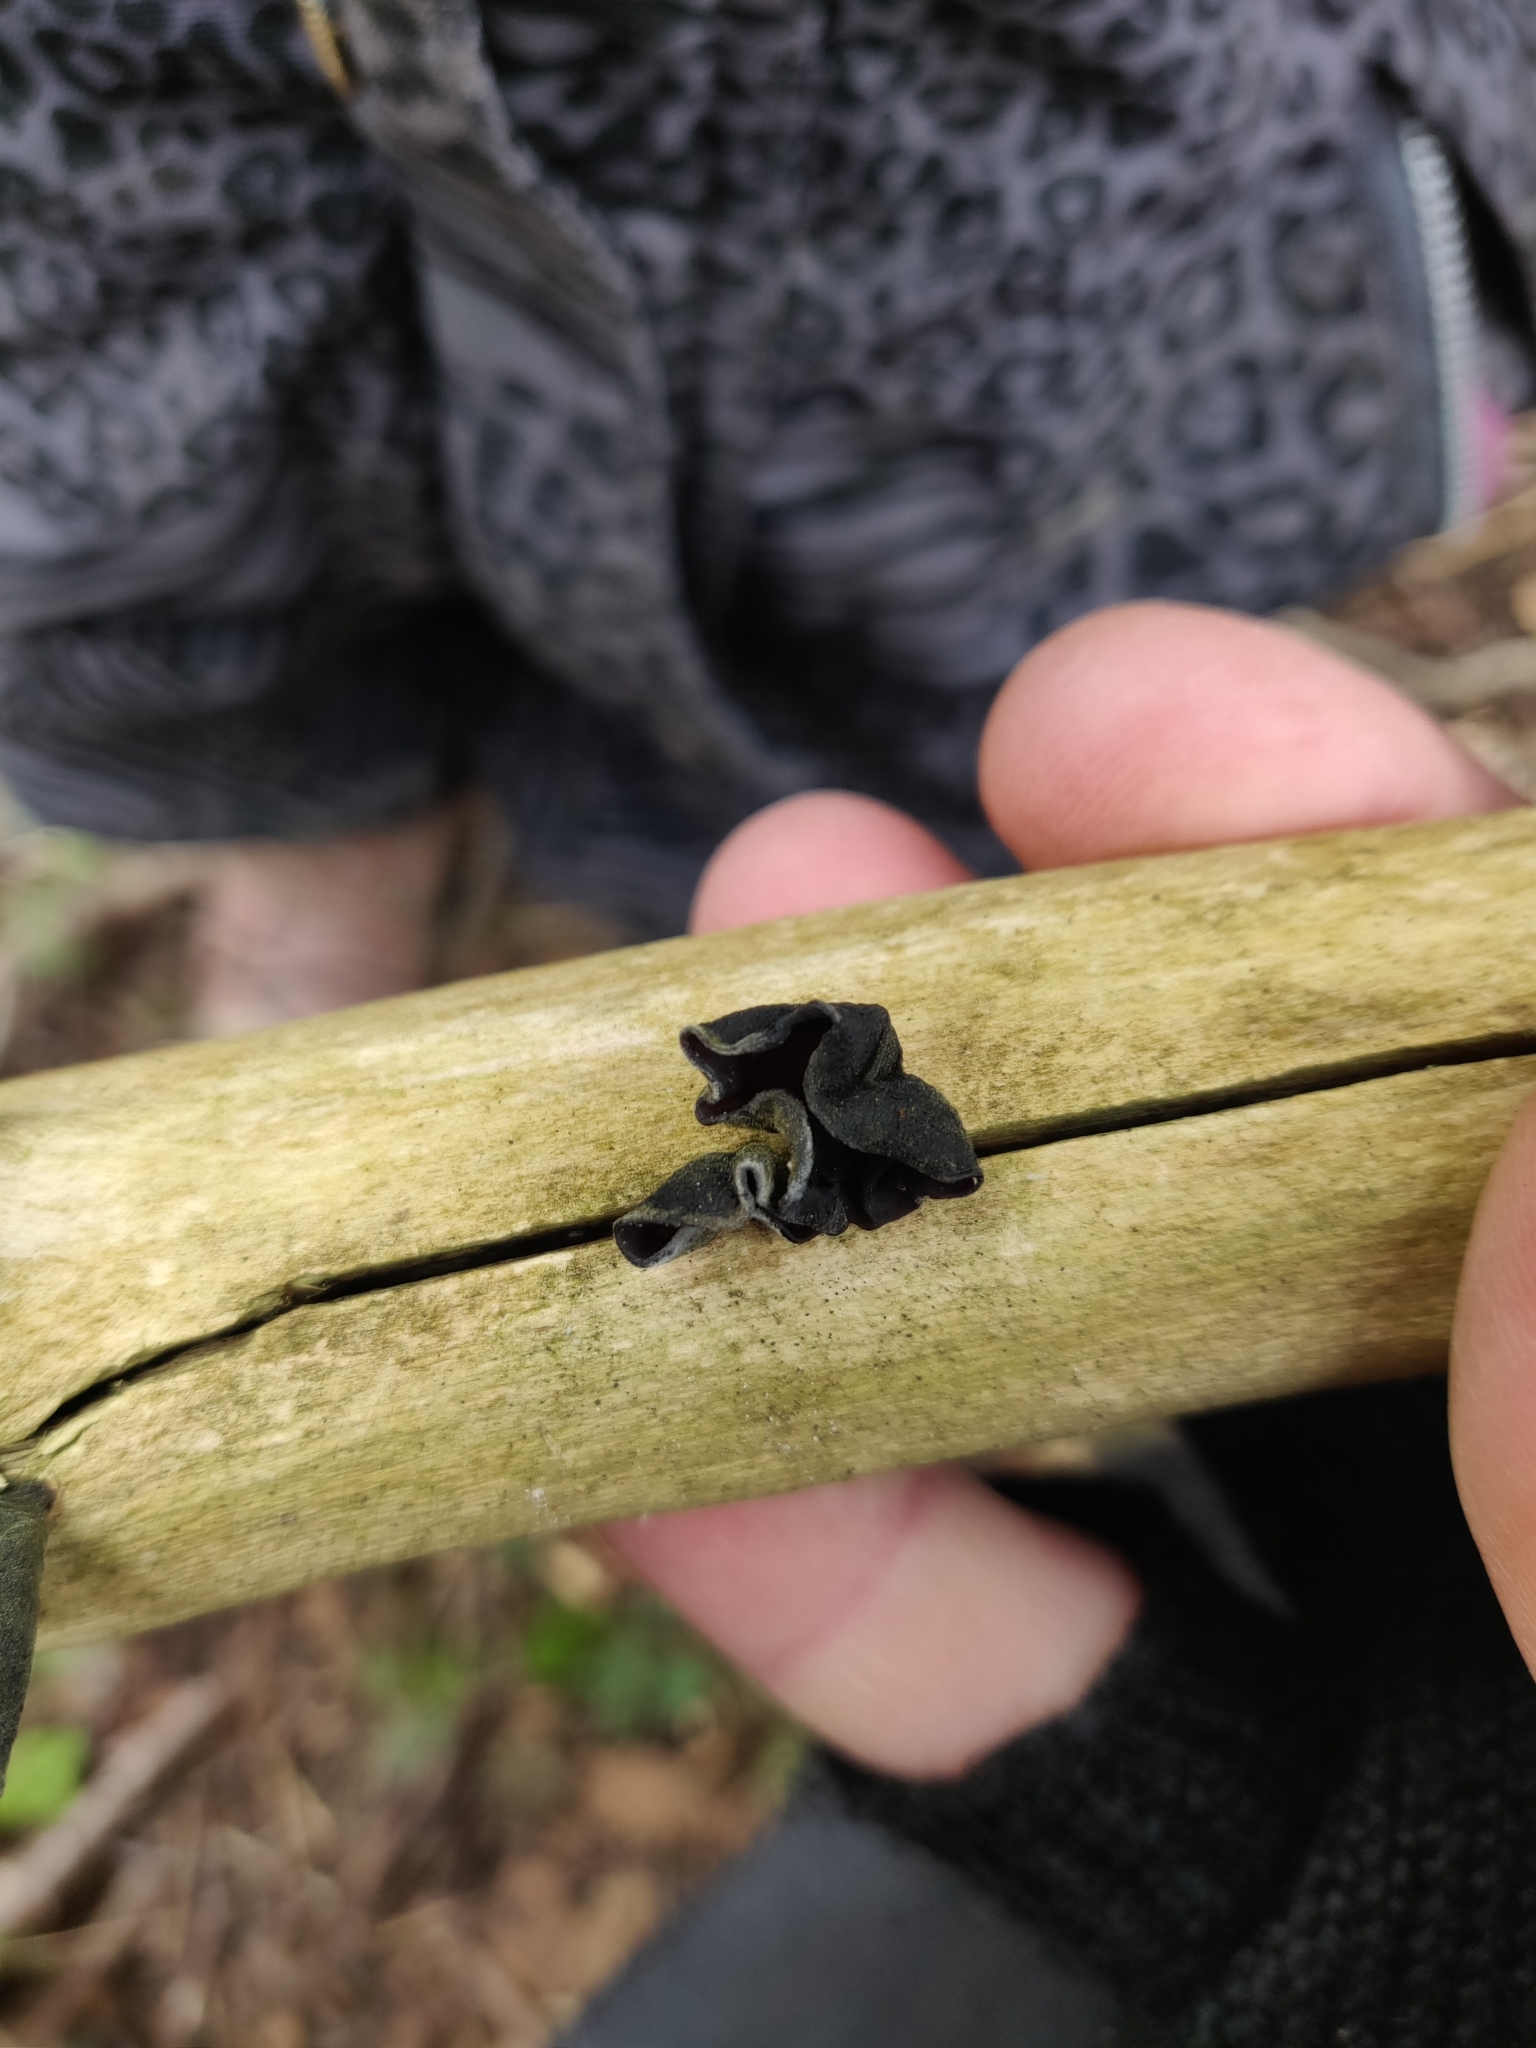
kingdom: Fungi
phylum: Basidiomycota
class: Agaricomycetes
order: Auriculariales
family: Auriculariaceae
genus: Auricularia
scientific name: Auricularia auricula-judae
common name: Jelly ear
